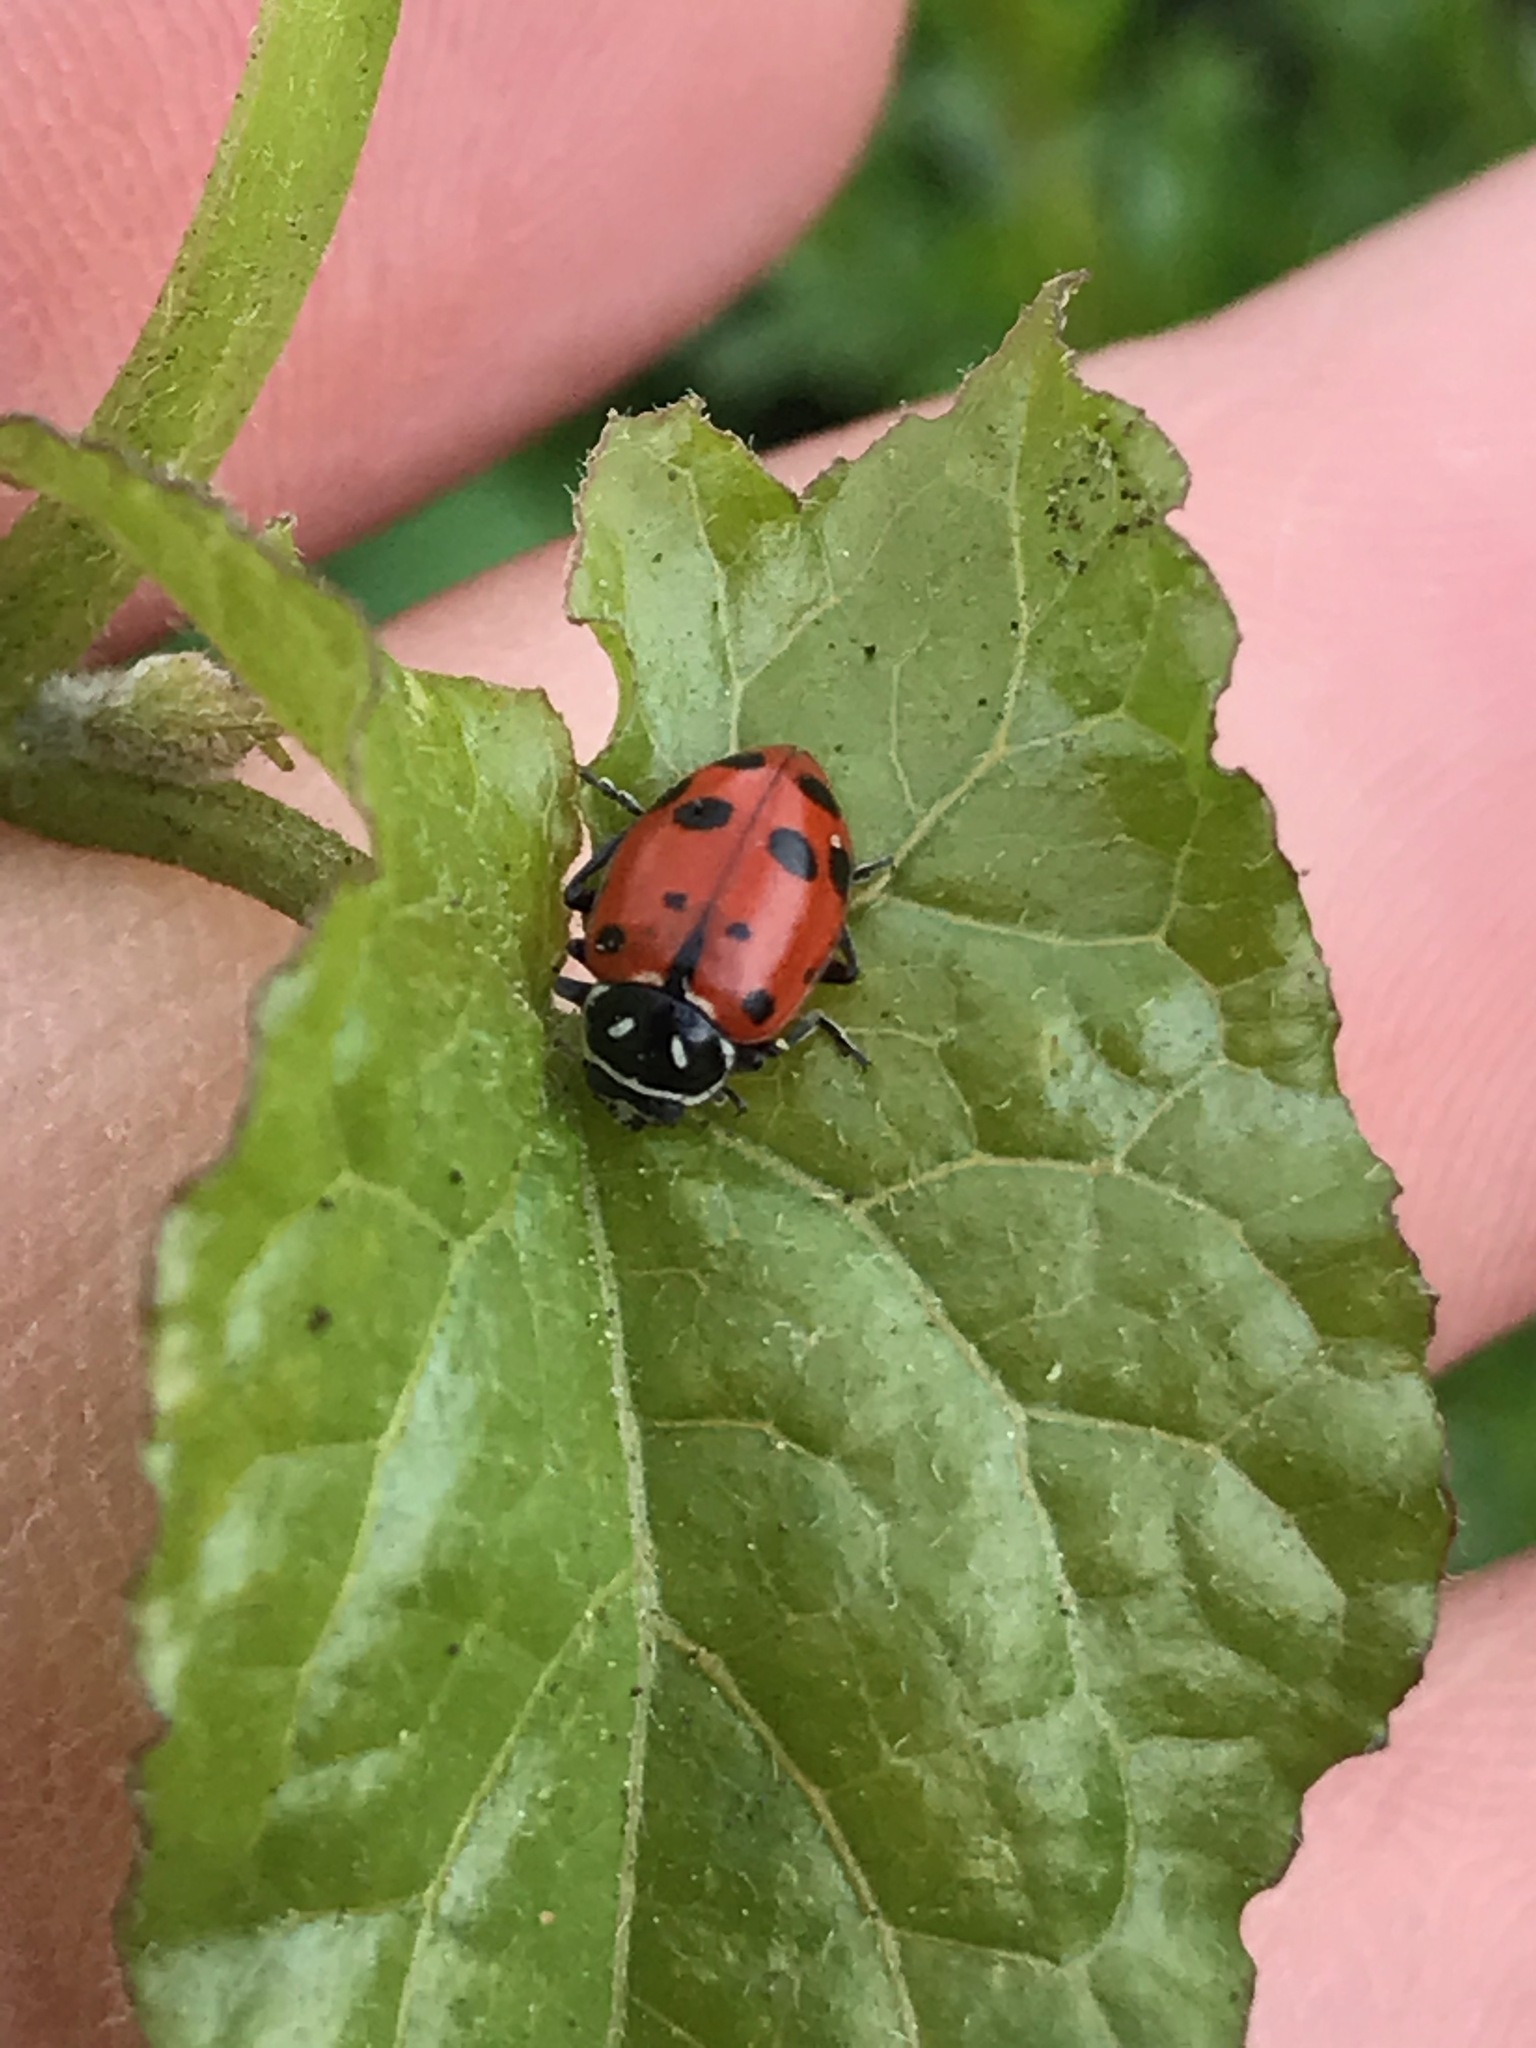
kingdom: Animalia
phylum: Arthropoda
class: Insecta
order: Coleoptera
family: Coccinellidae
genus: Hippodamia
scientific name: Hippodamia convergens
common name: Convergent lady beetle
